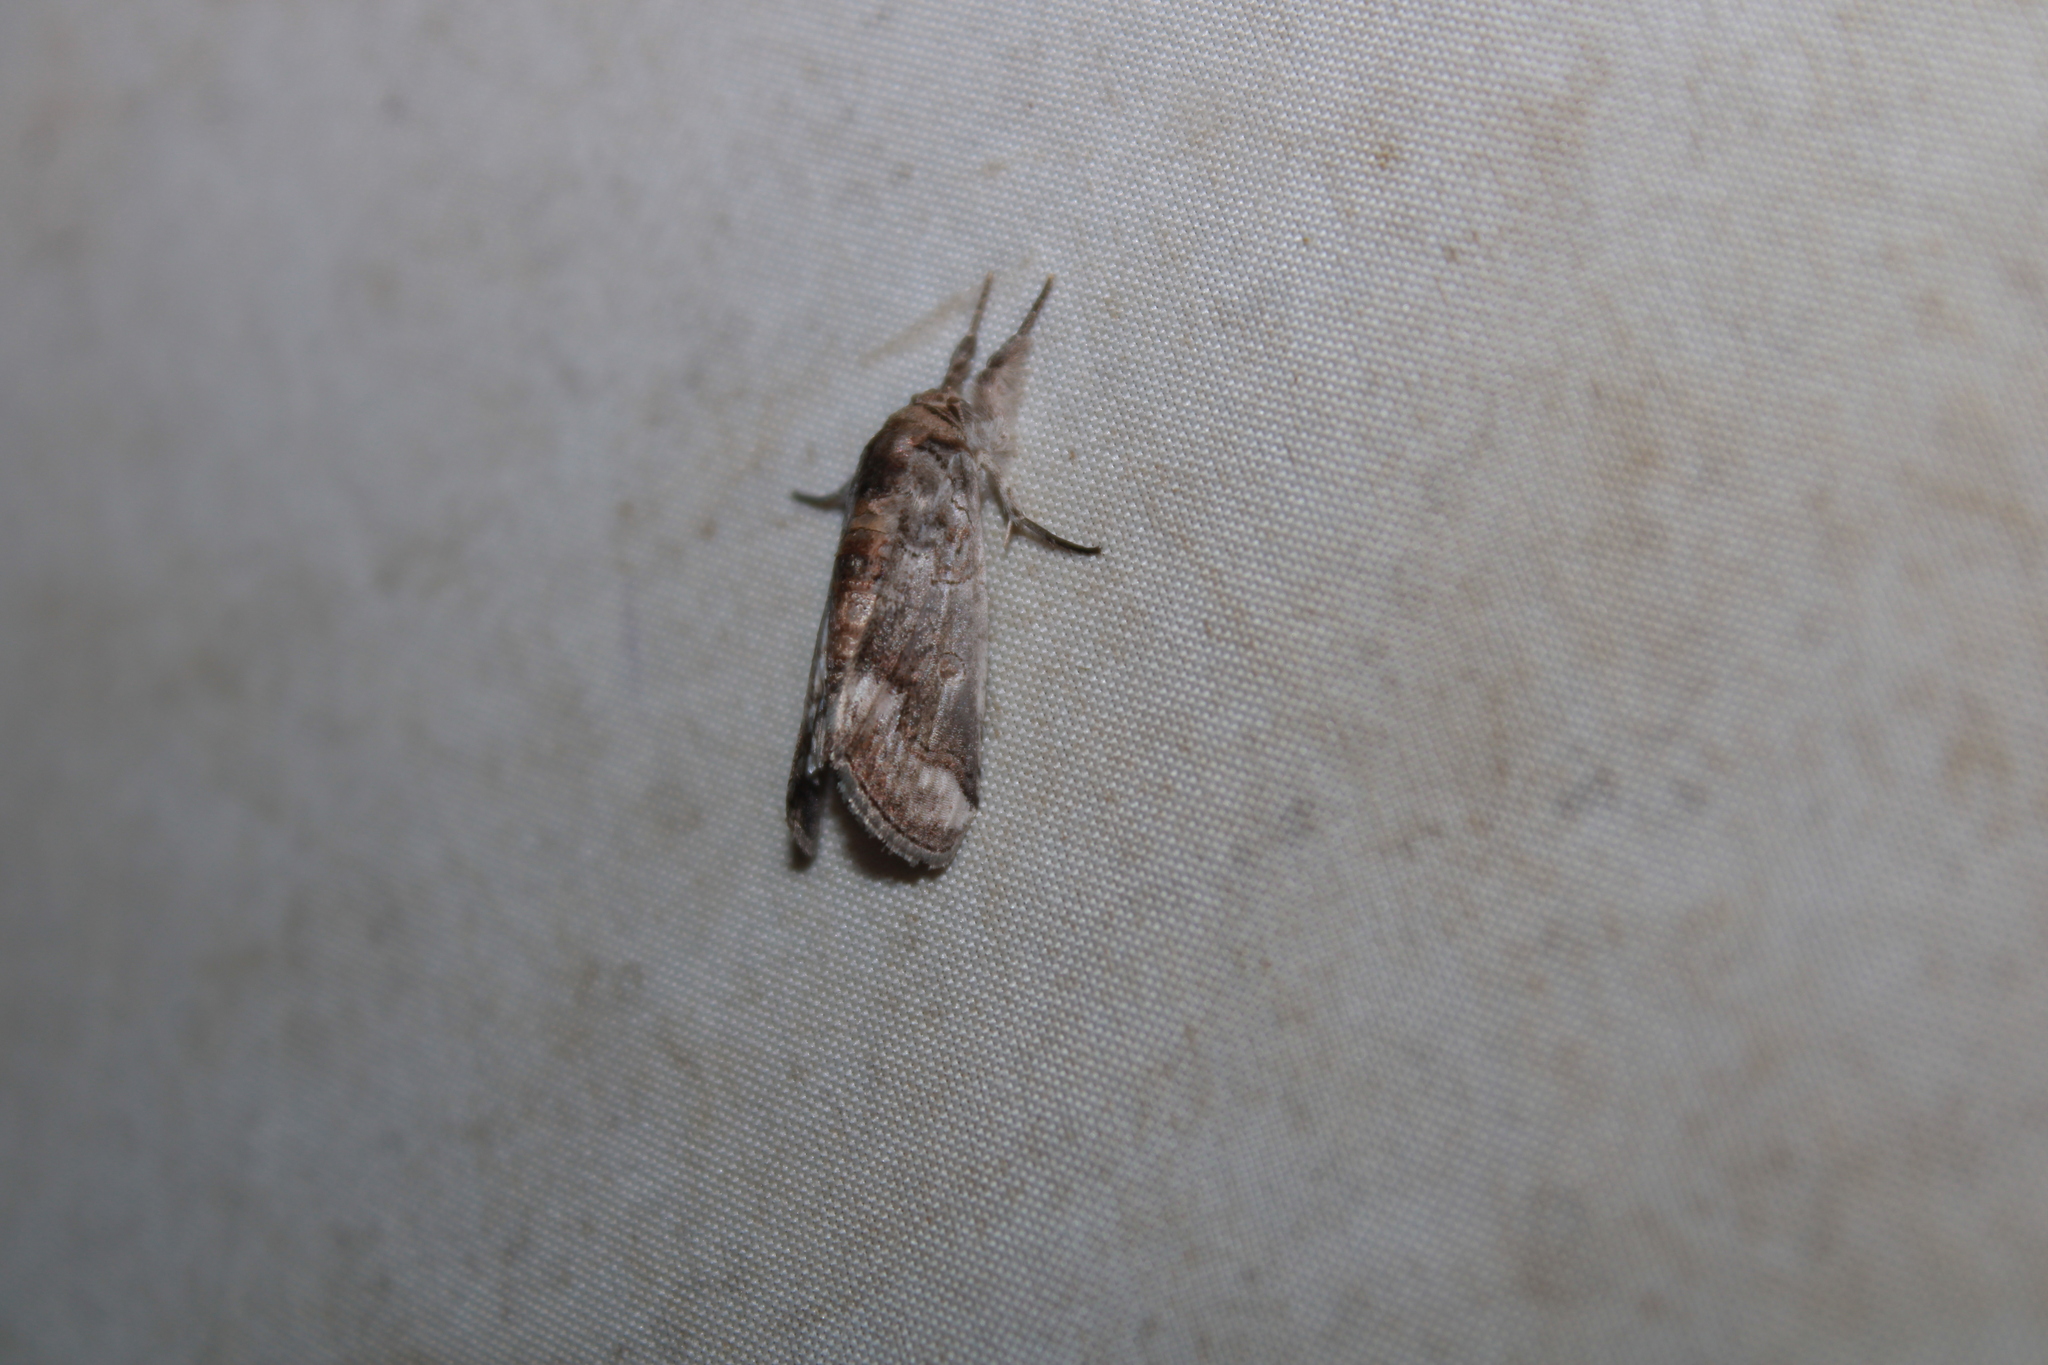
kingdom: Animalia
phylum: Arthropoda
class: Insecta
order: Lepidoptera
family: Nolidae
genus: Motya
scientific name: Motya
